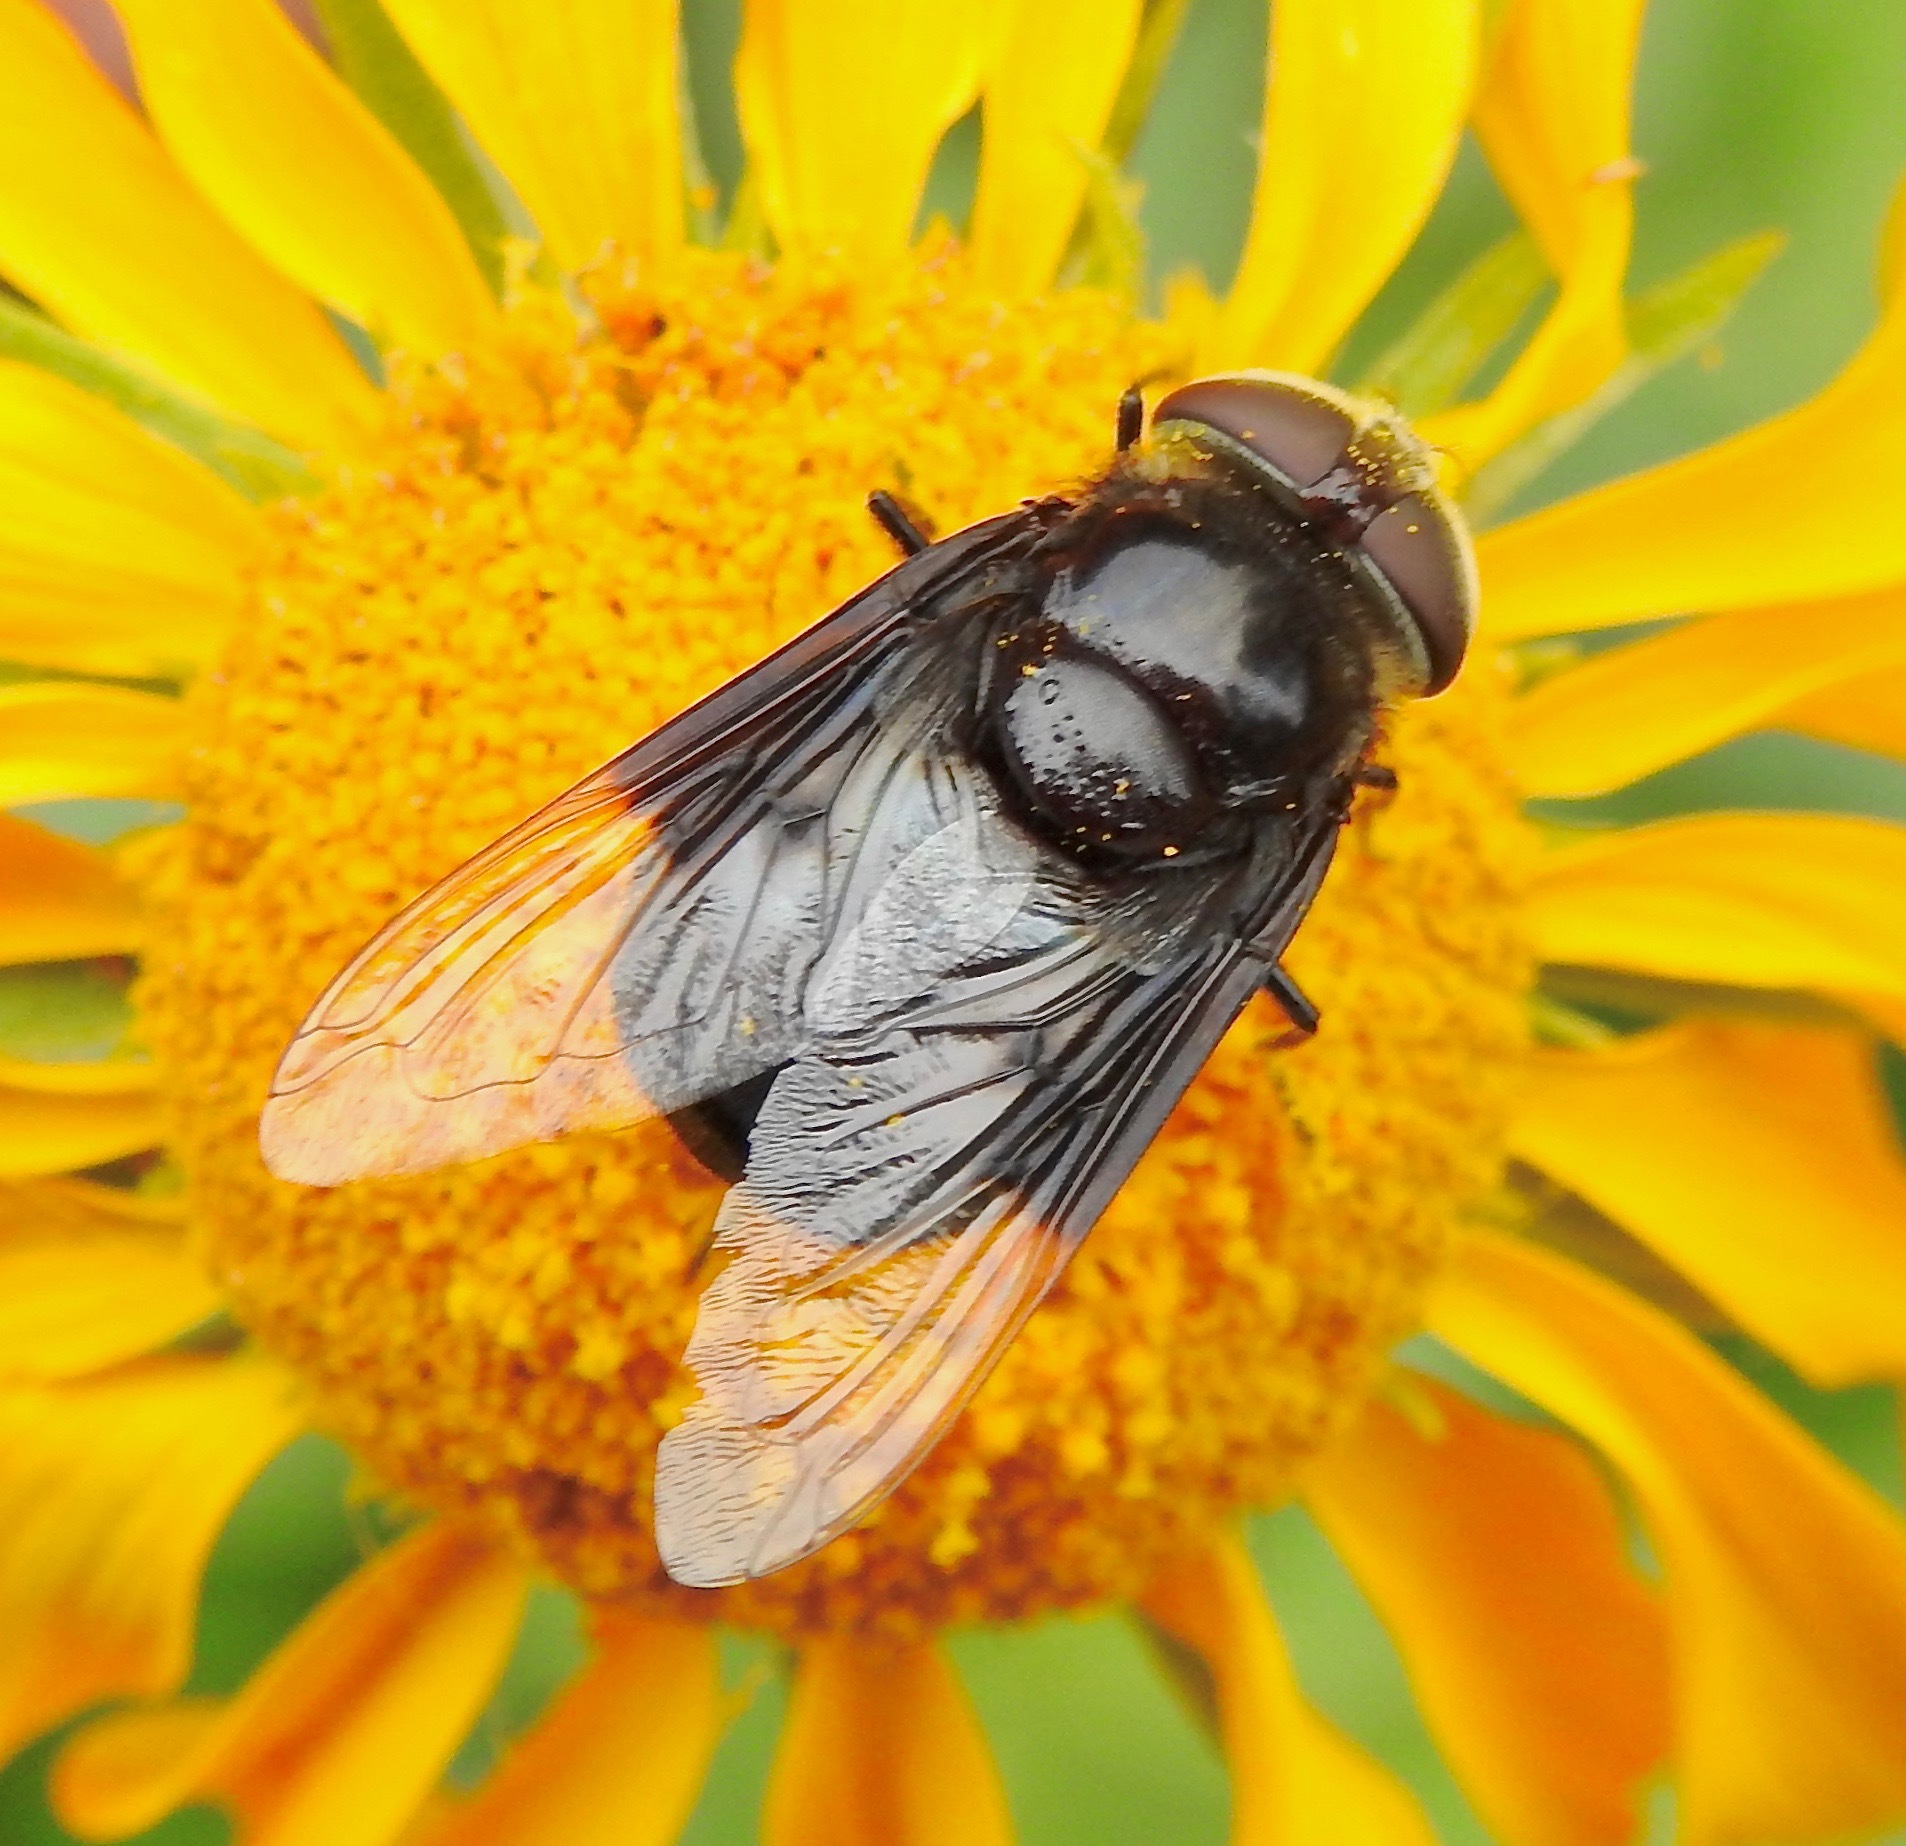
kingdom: Animalia
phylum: Arthropoda
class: Insecta
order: Diptera
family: Syrphidae
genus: Copestylum
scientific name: Copestylum violaceum
